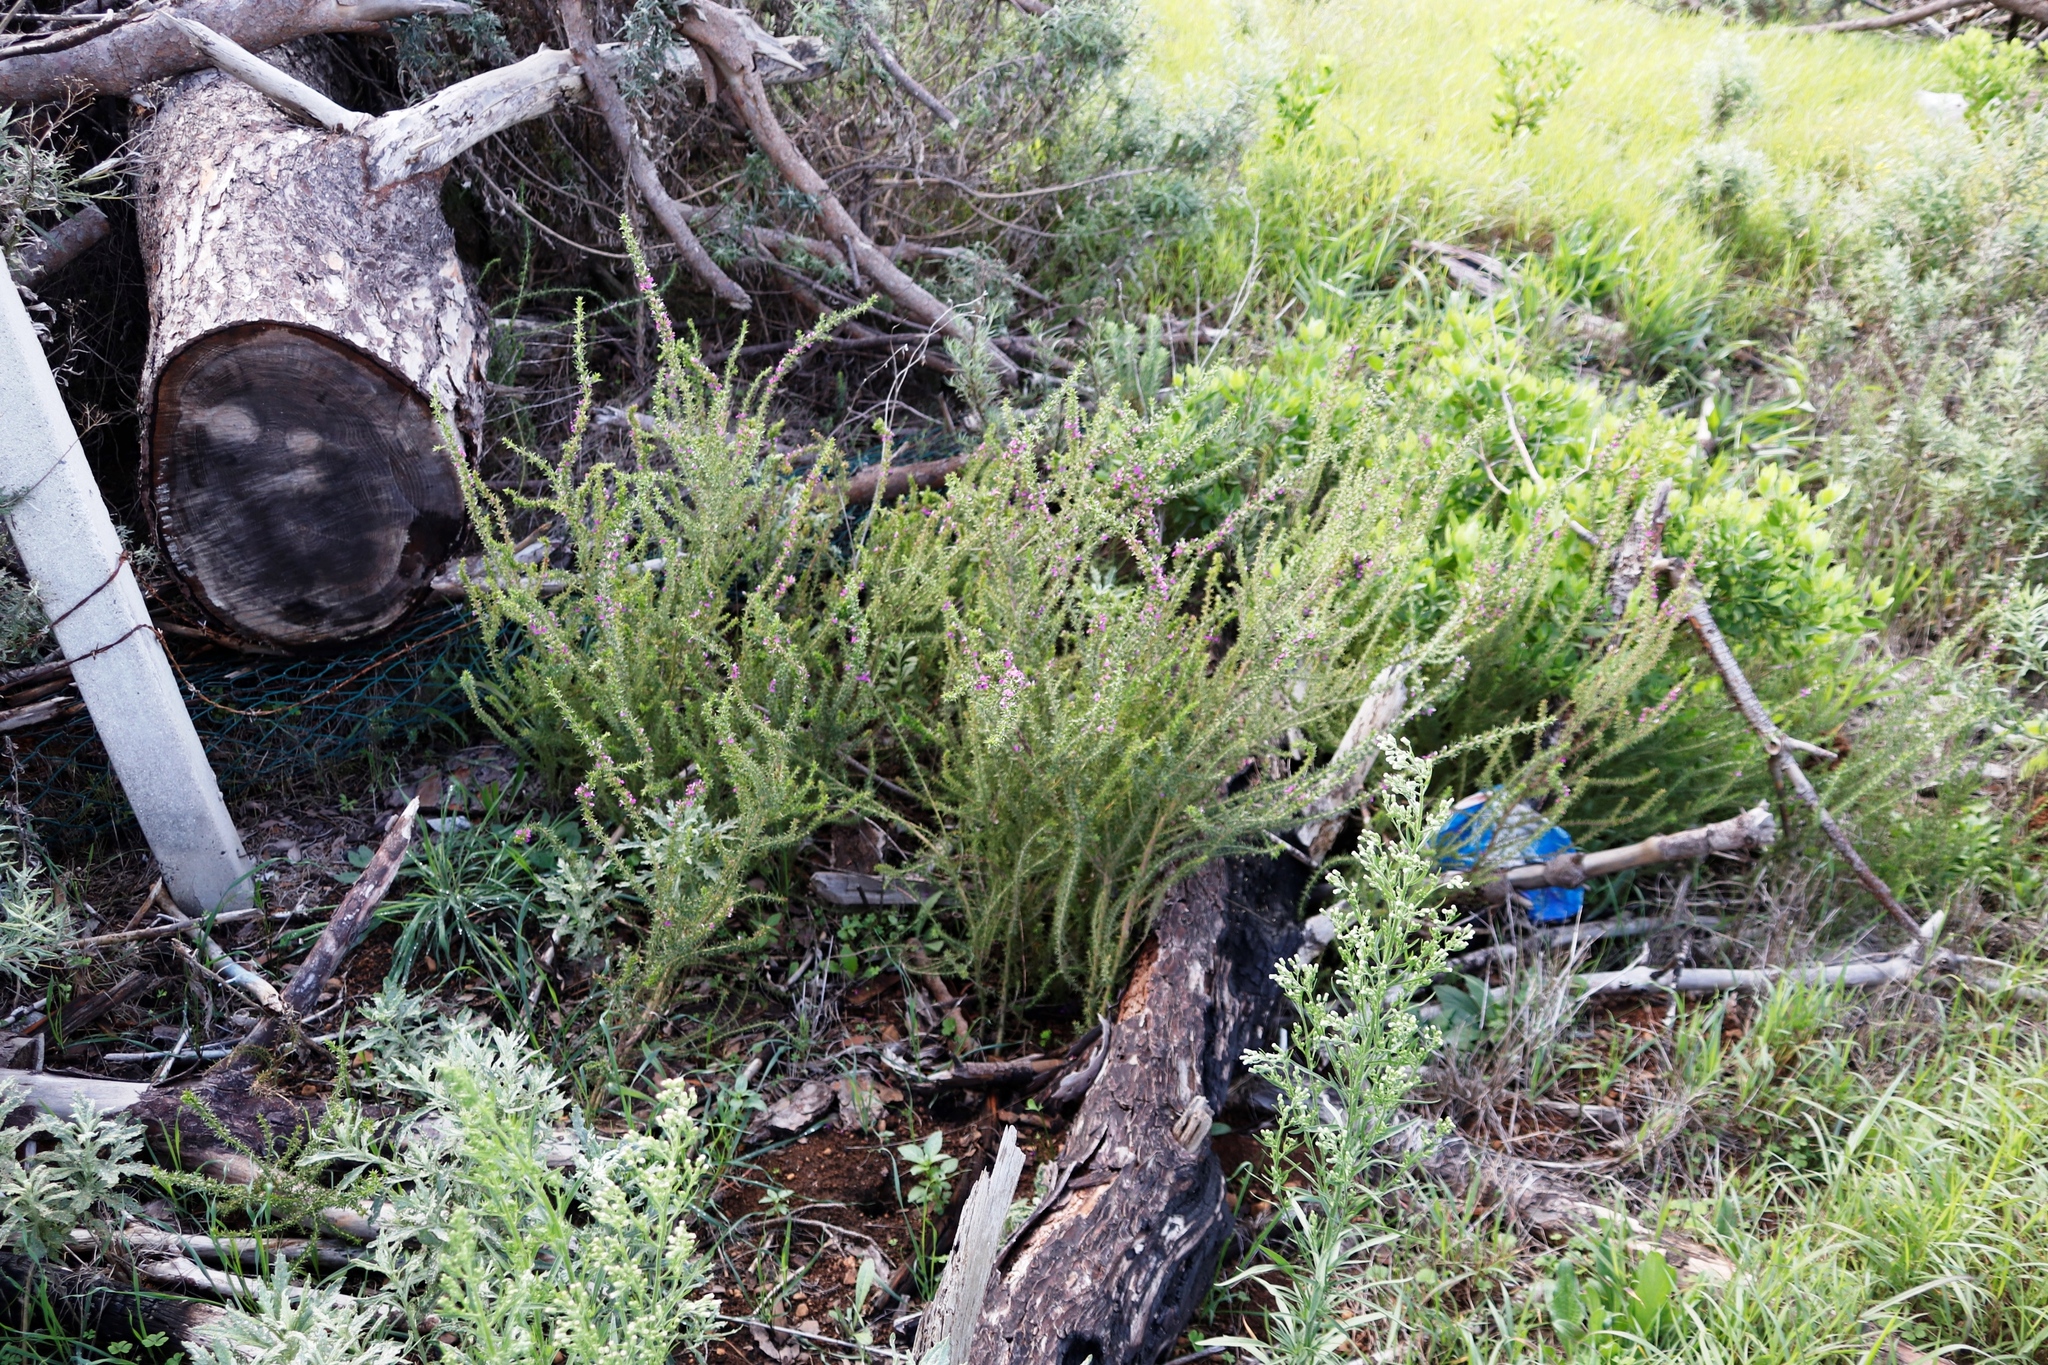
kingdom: Plantae
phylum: Tracheophyta
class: Magnoliopsida
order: Fabales
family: Polygalaceae
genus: Muraltia
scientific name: Muraltia heisteria
